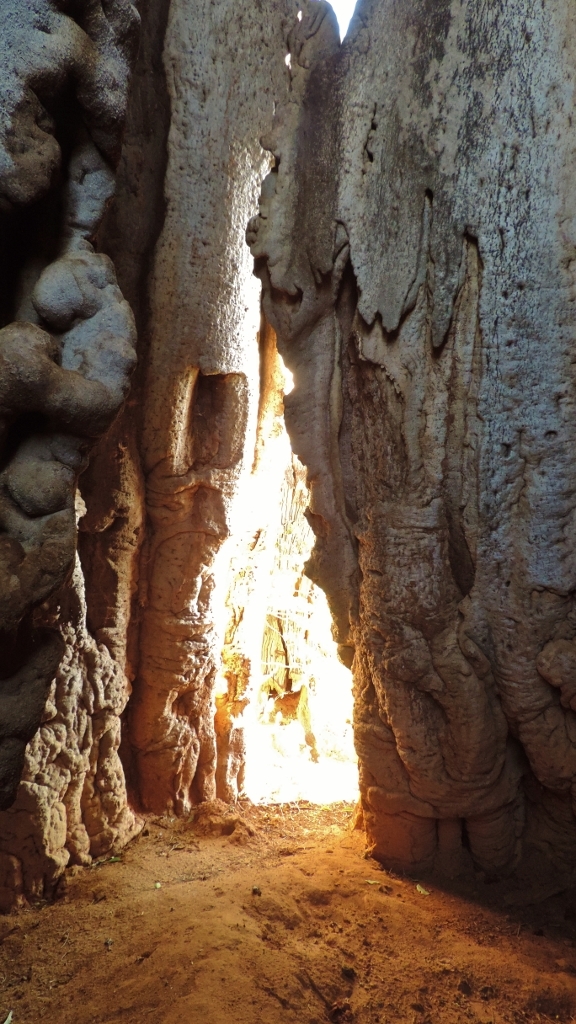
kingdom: Plantae
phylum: Tracheophyta
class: Magnoliopsida
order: Malvales
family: Malvaceae
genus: Adansonia
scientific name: Adansonia digitata
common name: Dead-rat-tree
